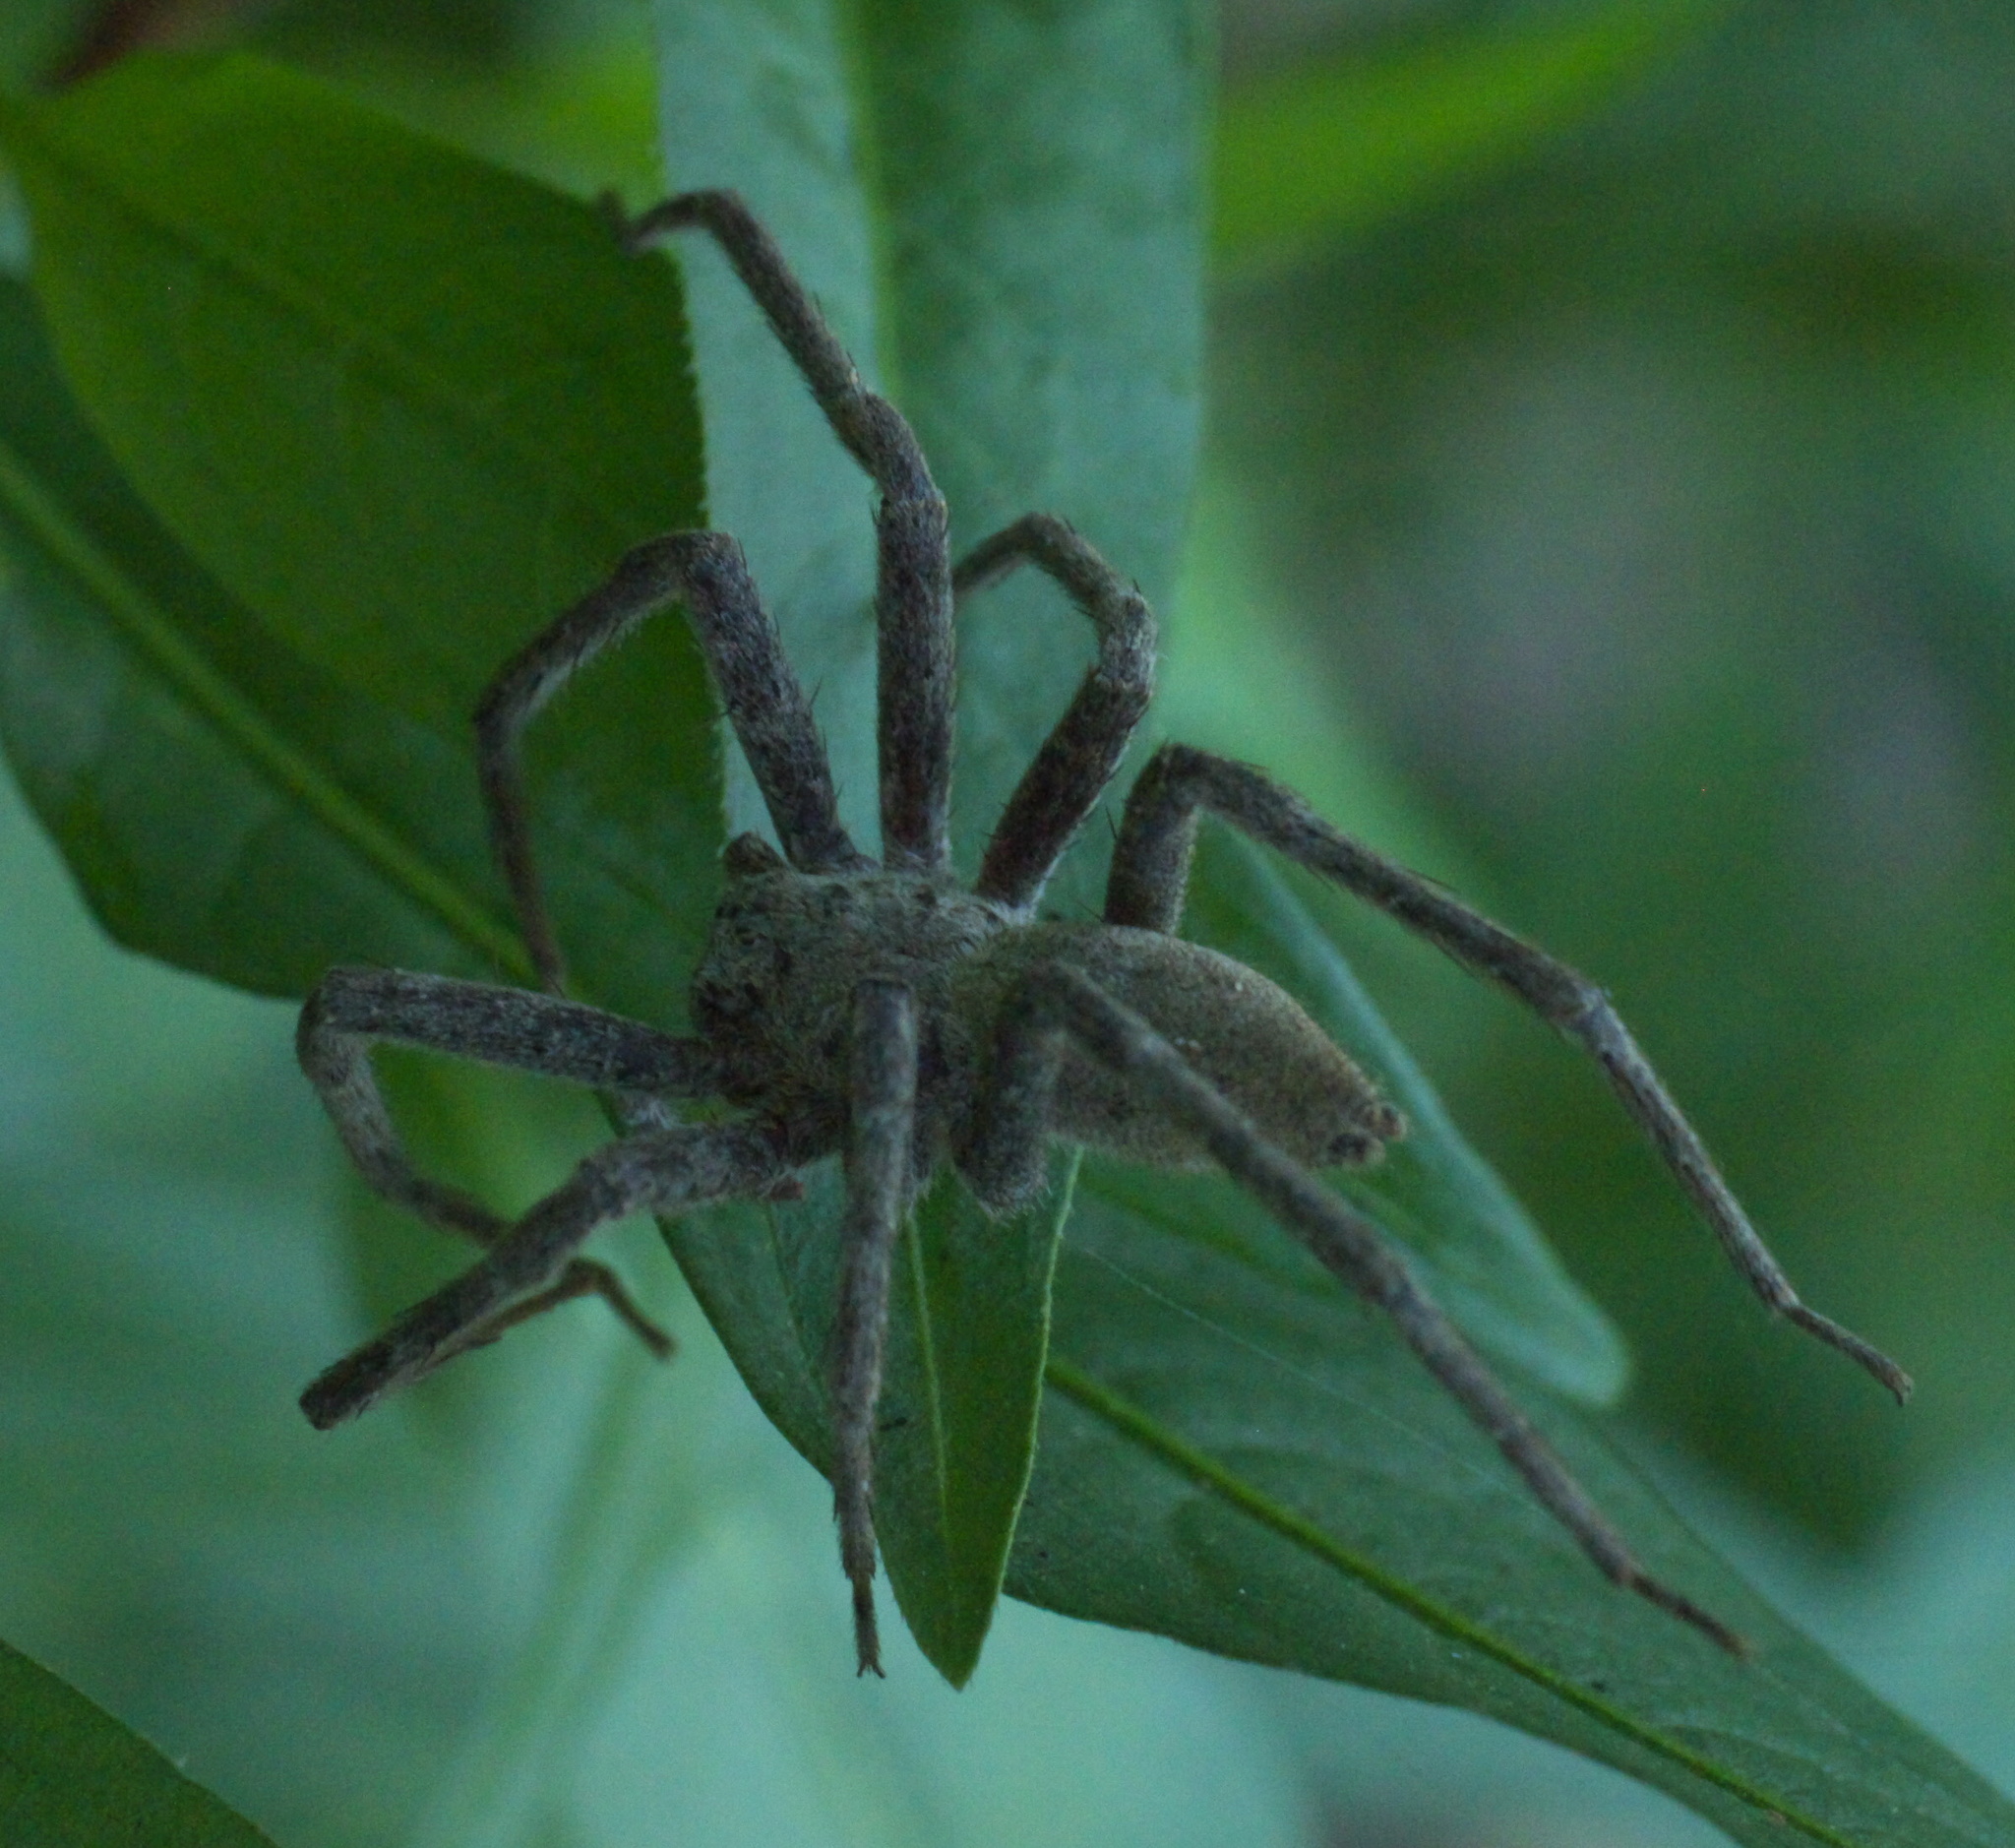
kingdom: Animalia
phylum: Arthropoda
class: Arachnida
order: Araneae
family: Pisauridae
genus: Pisaurina
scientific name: Pisaurina mira
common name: American nursery web spider
